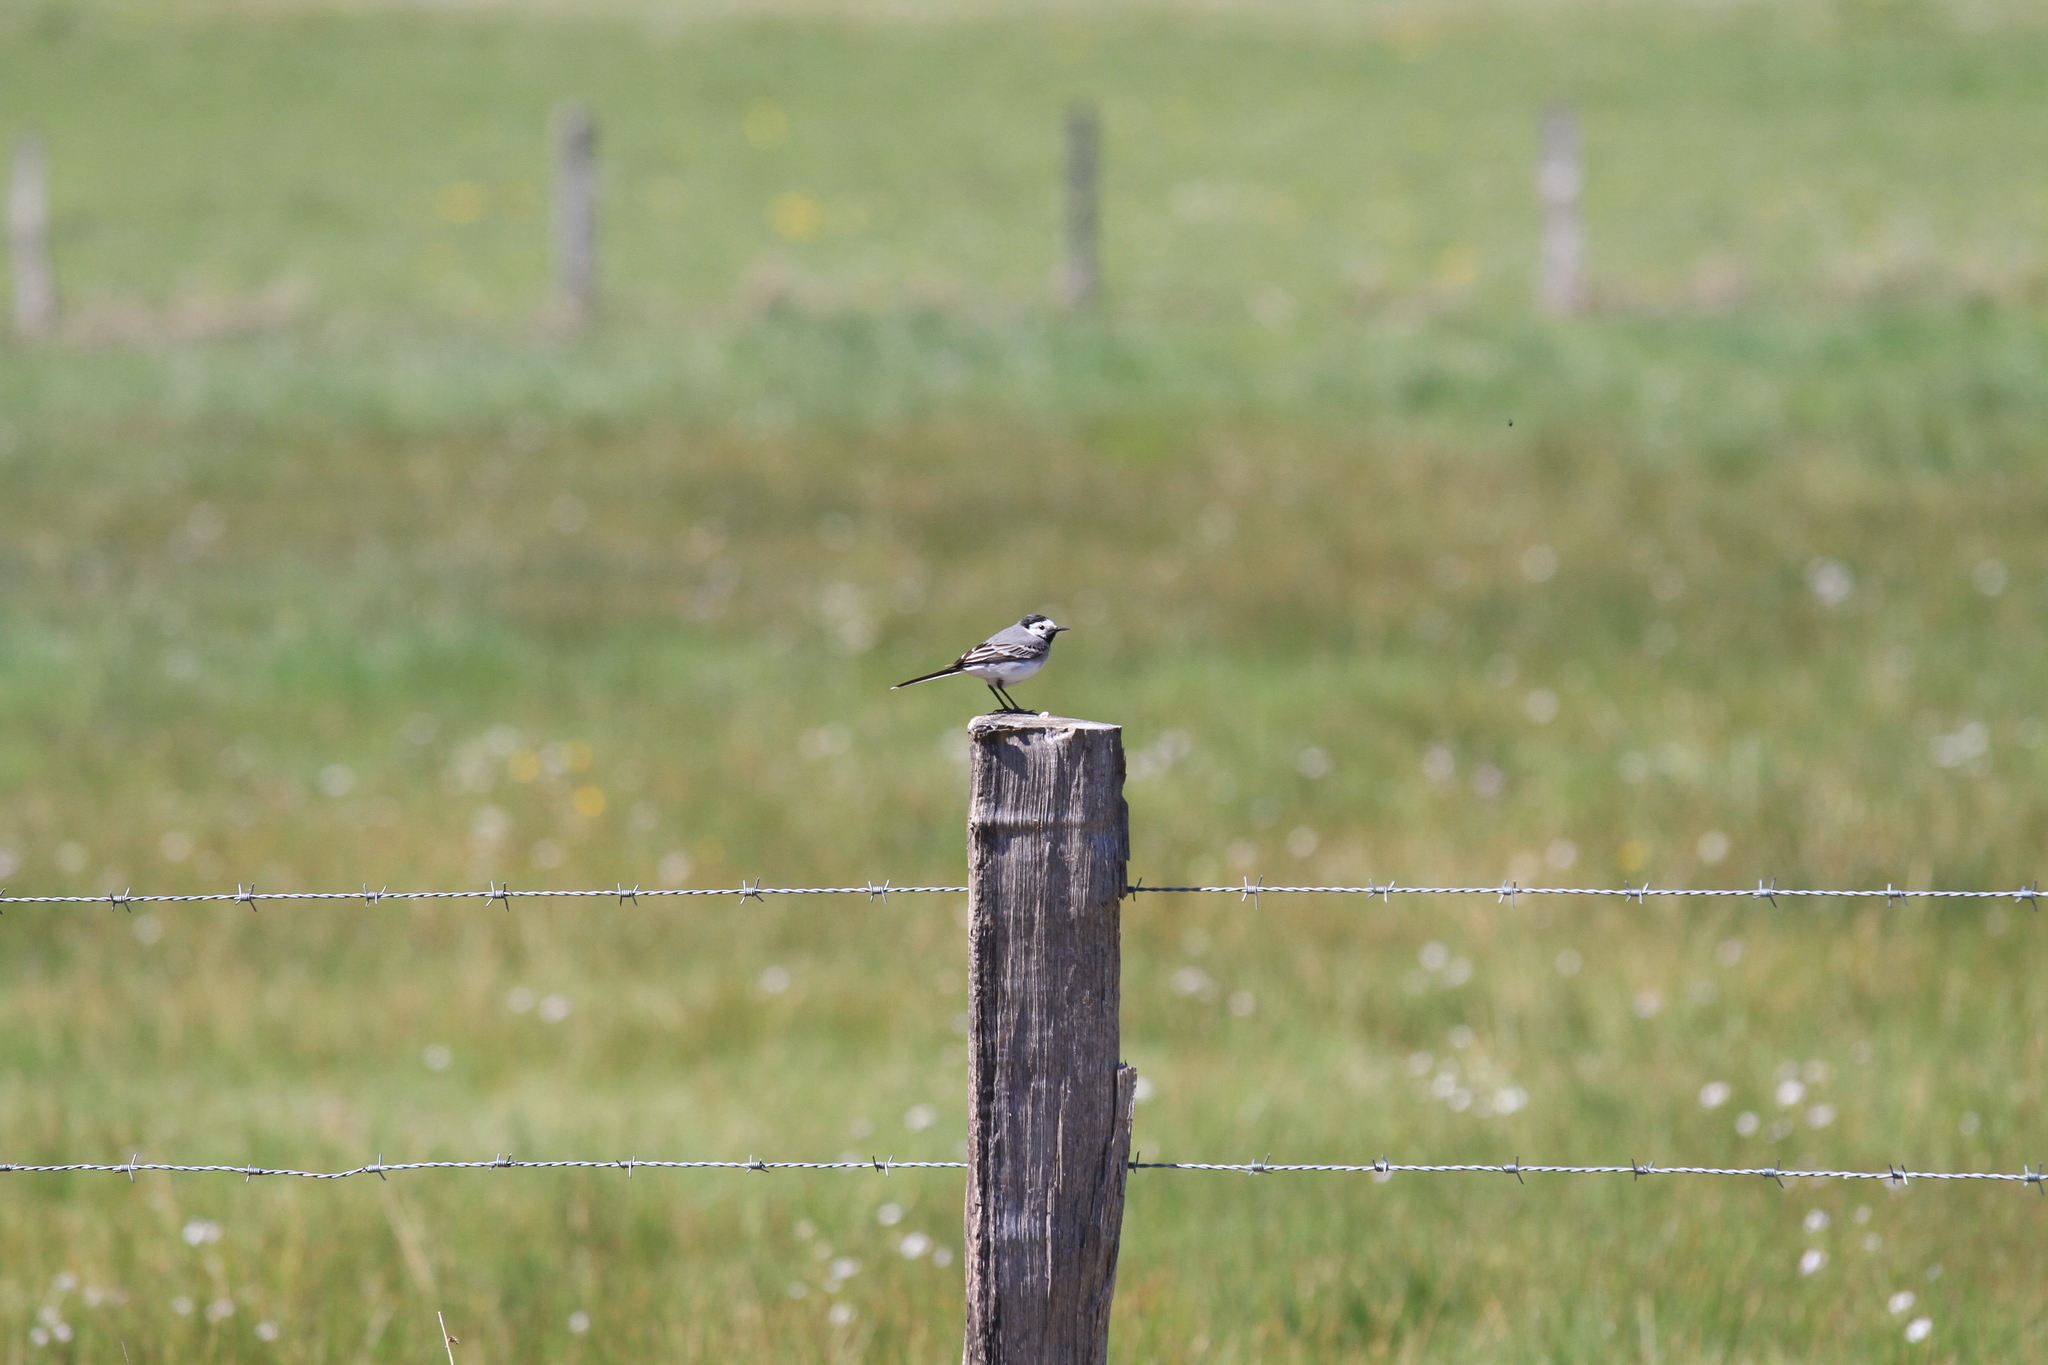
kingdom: Animalia
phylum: Chordata
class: Aves
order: Passeriformes
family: Motacillidae
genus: Motacilla
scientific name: Motacilla alba
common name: White wagtail
